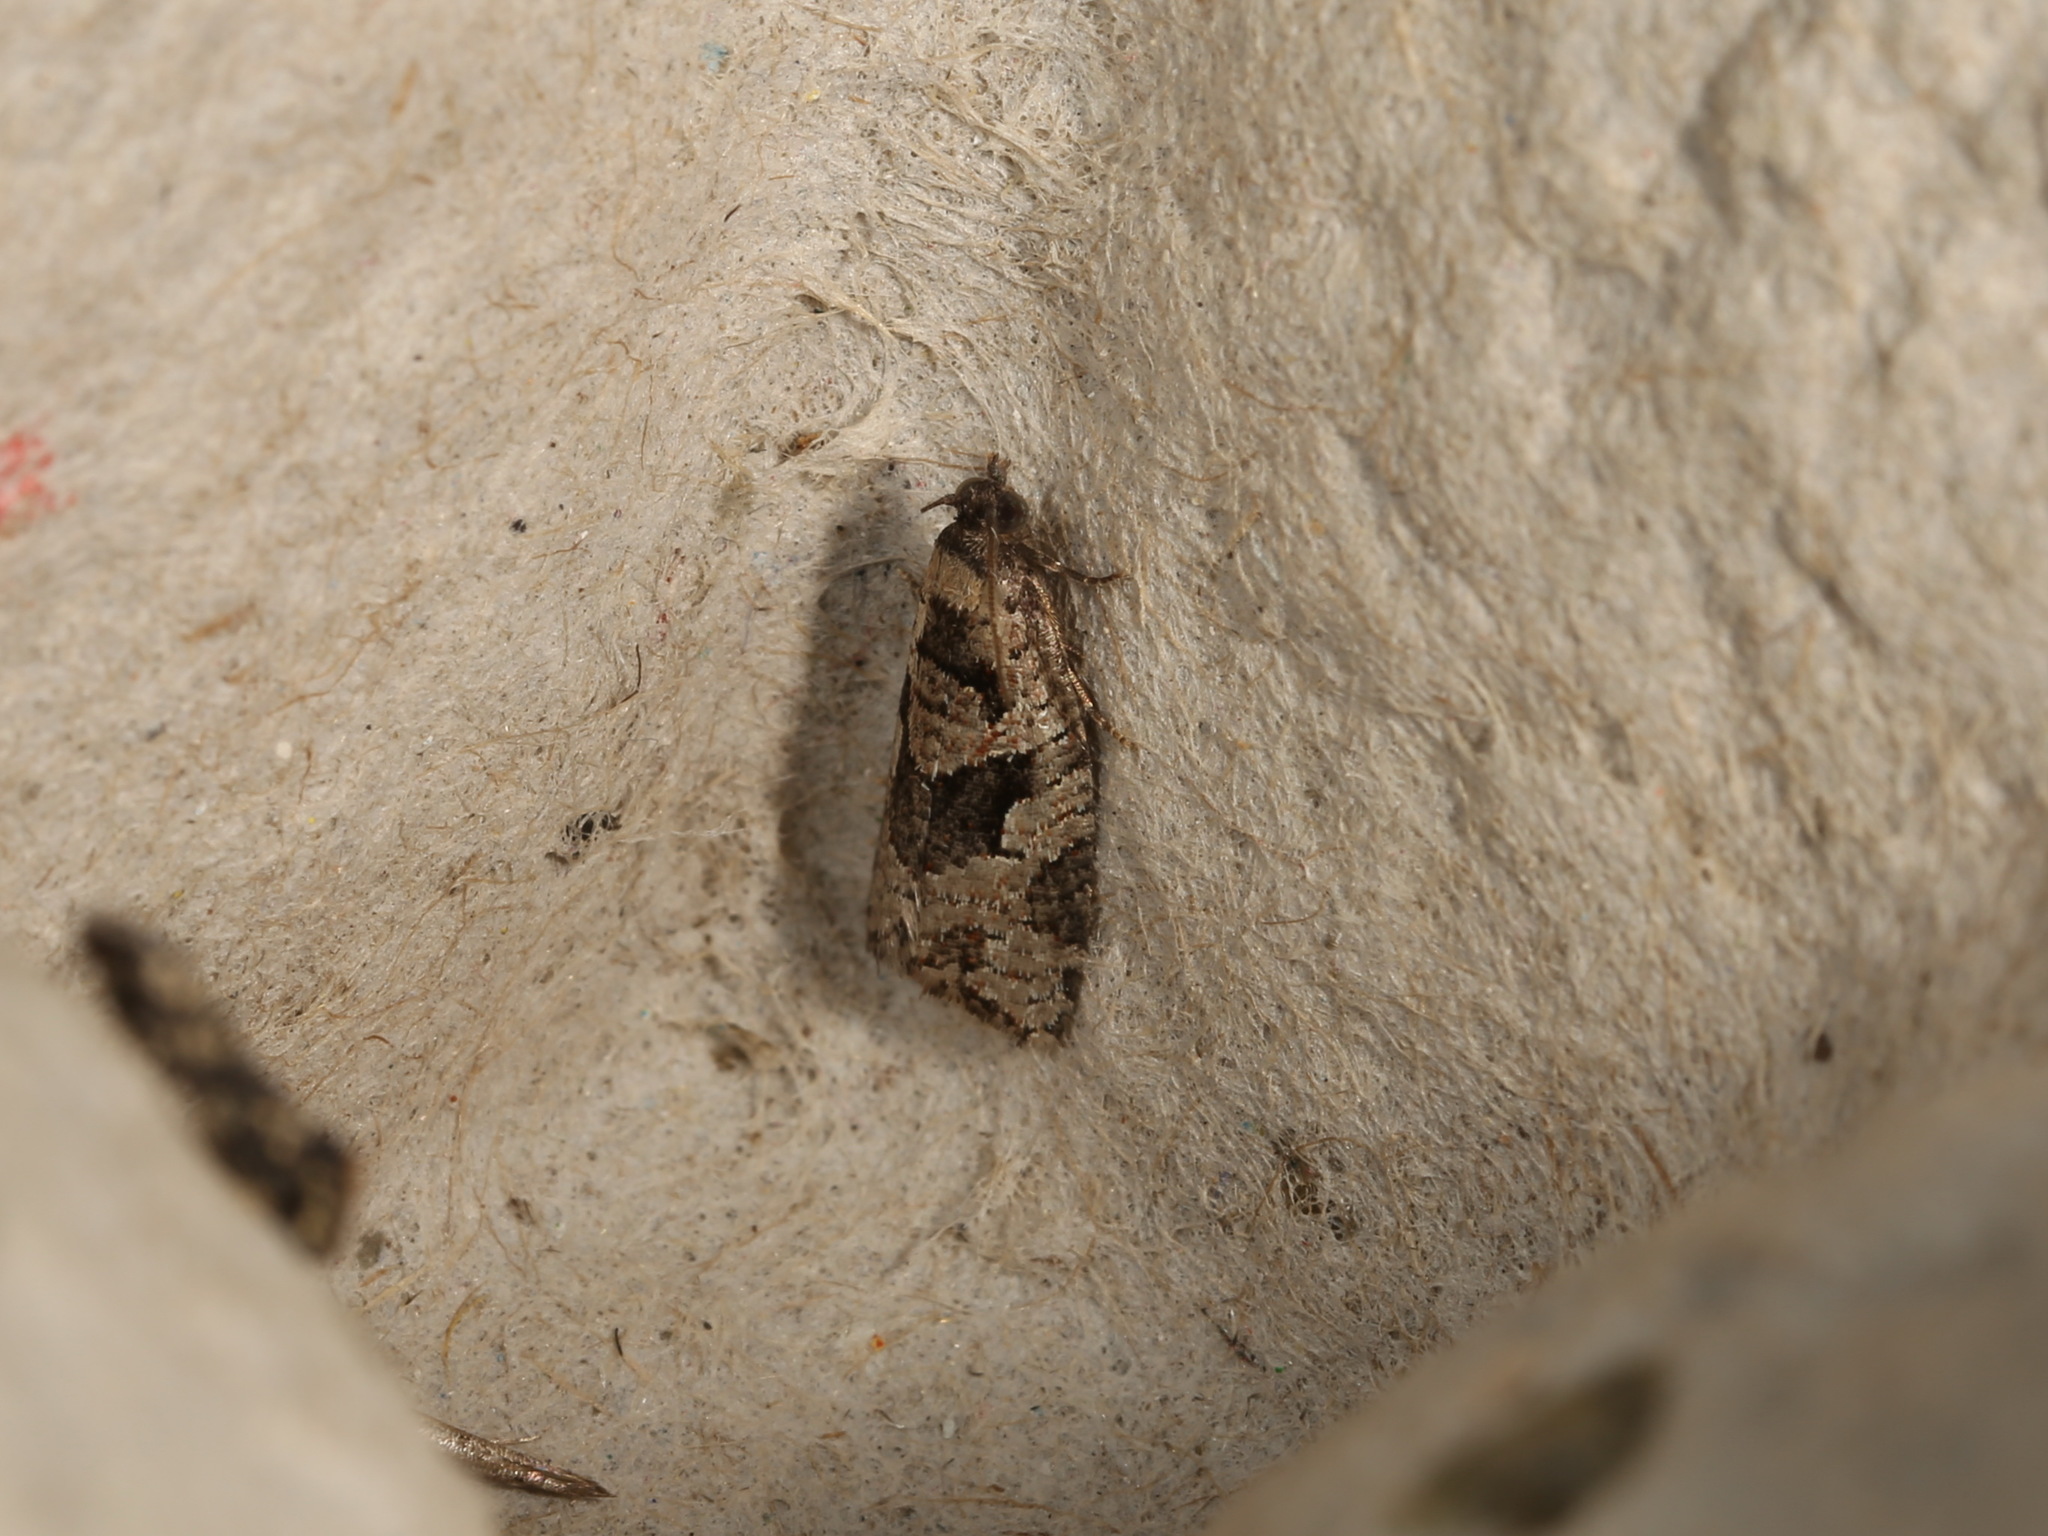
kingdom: Animalia
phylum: Arthropoda
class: Insecta
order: Lepidoptera
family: Tortricidae
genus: Sciaphila
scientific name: Sciaphila debiliana
